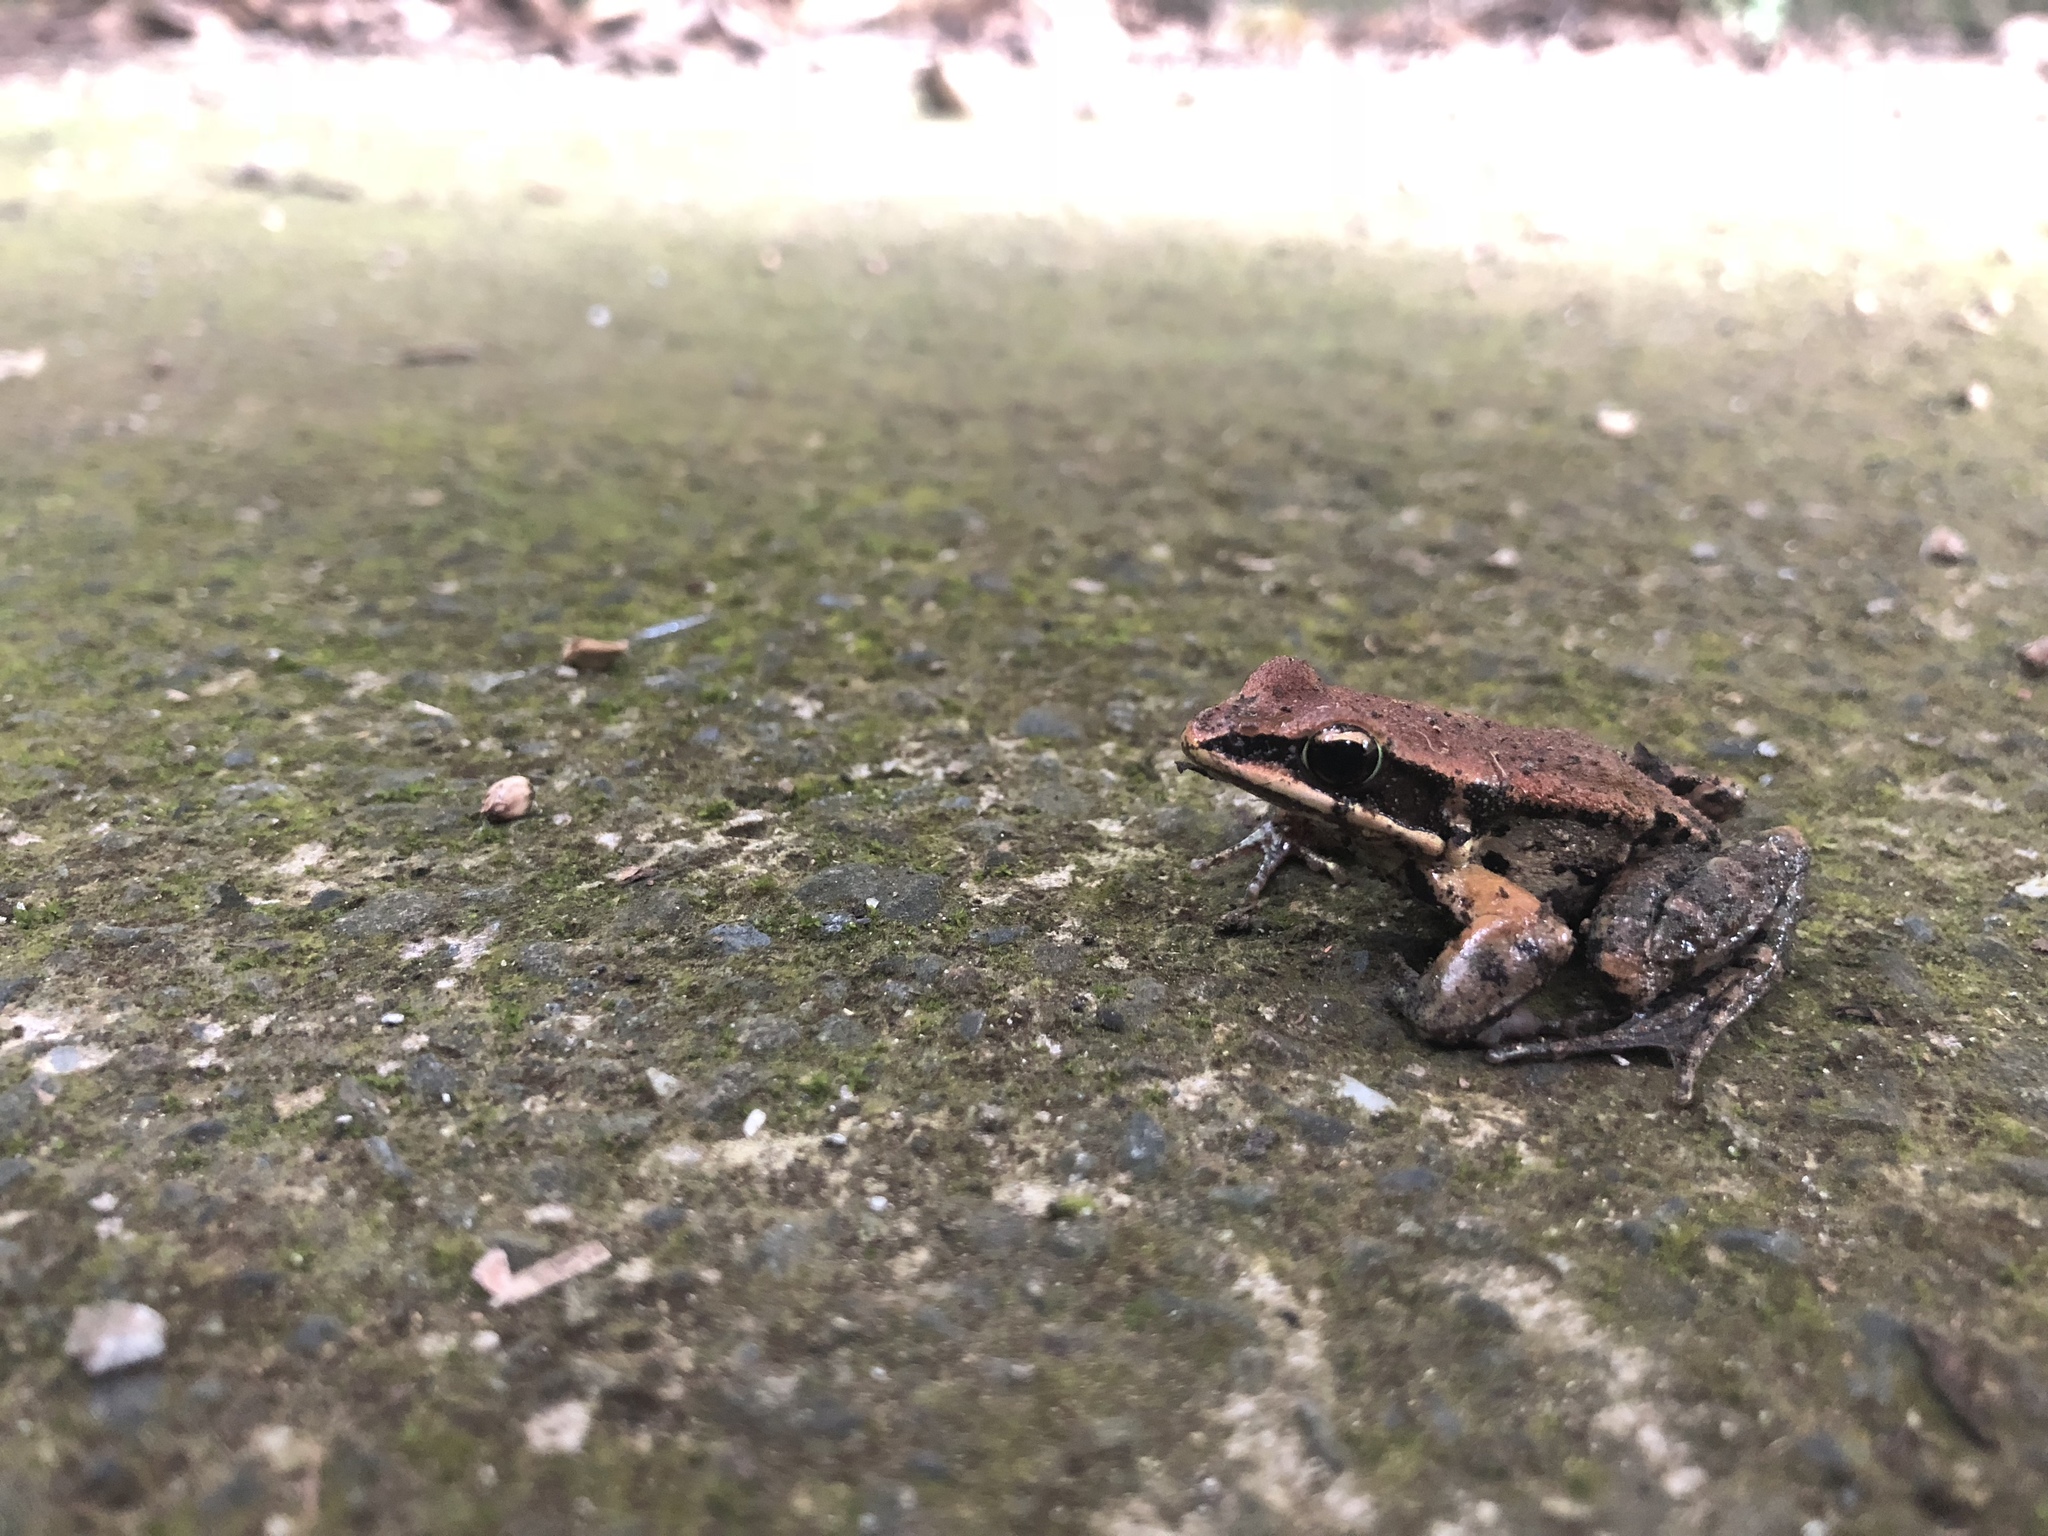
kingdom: Animalia
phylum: Chordata
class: Amphibia
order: Anura
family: Ranidae
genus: Hylarana
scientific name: Hylarana latouchii
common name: Broad-folded frog
